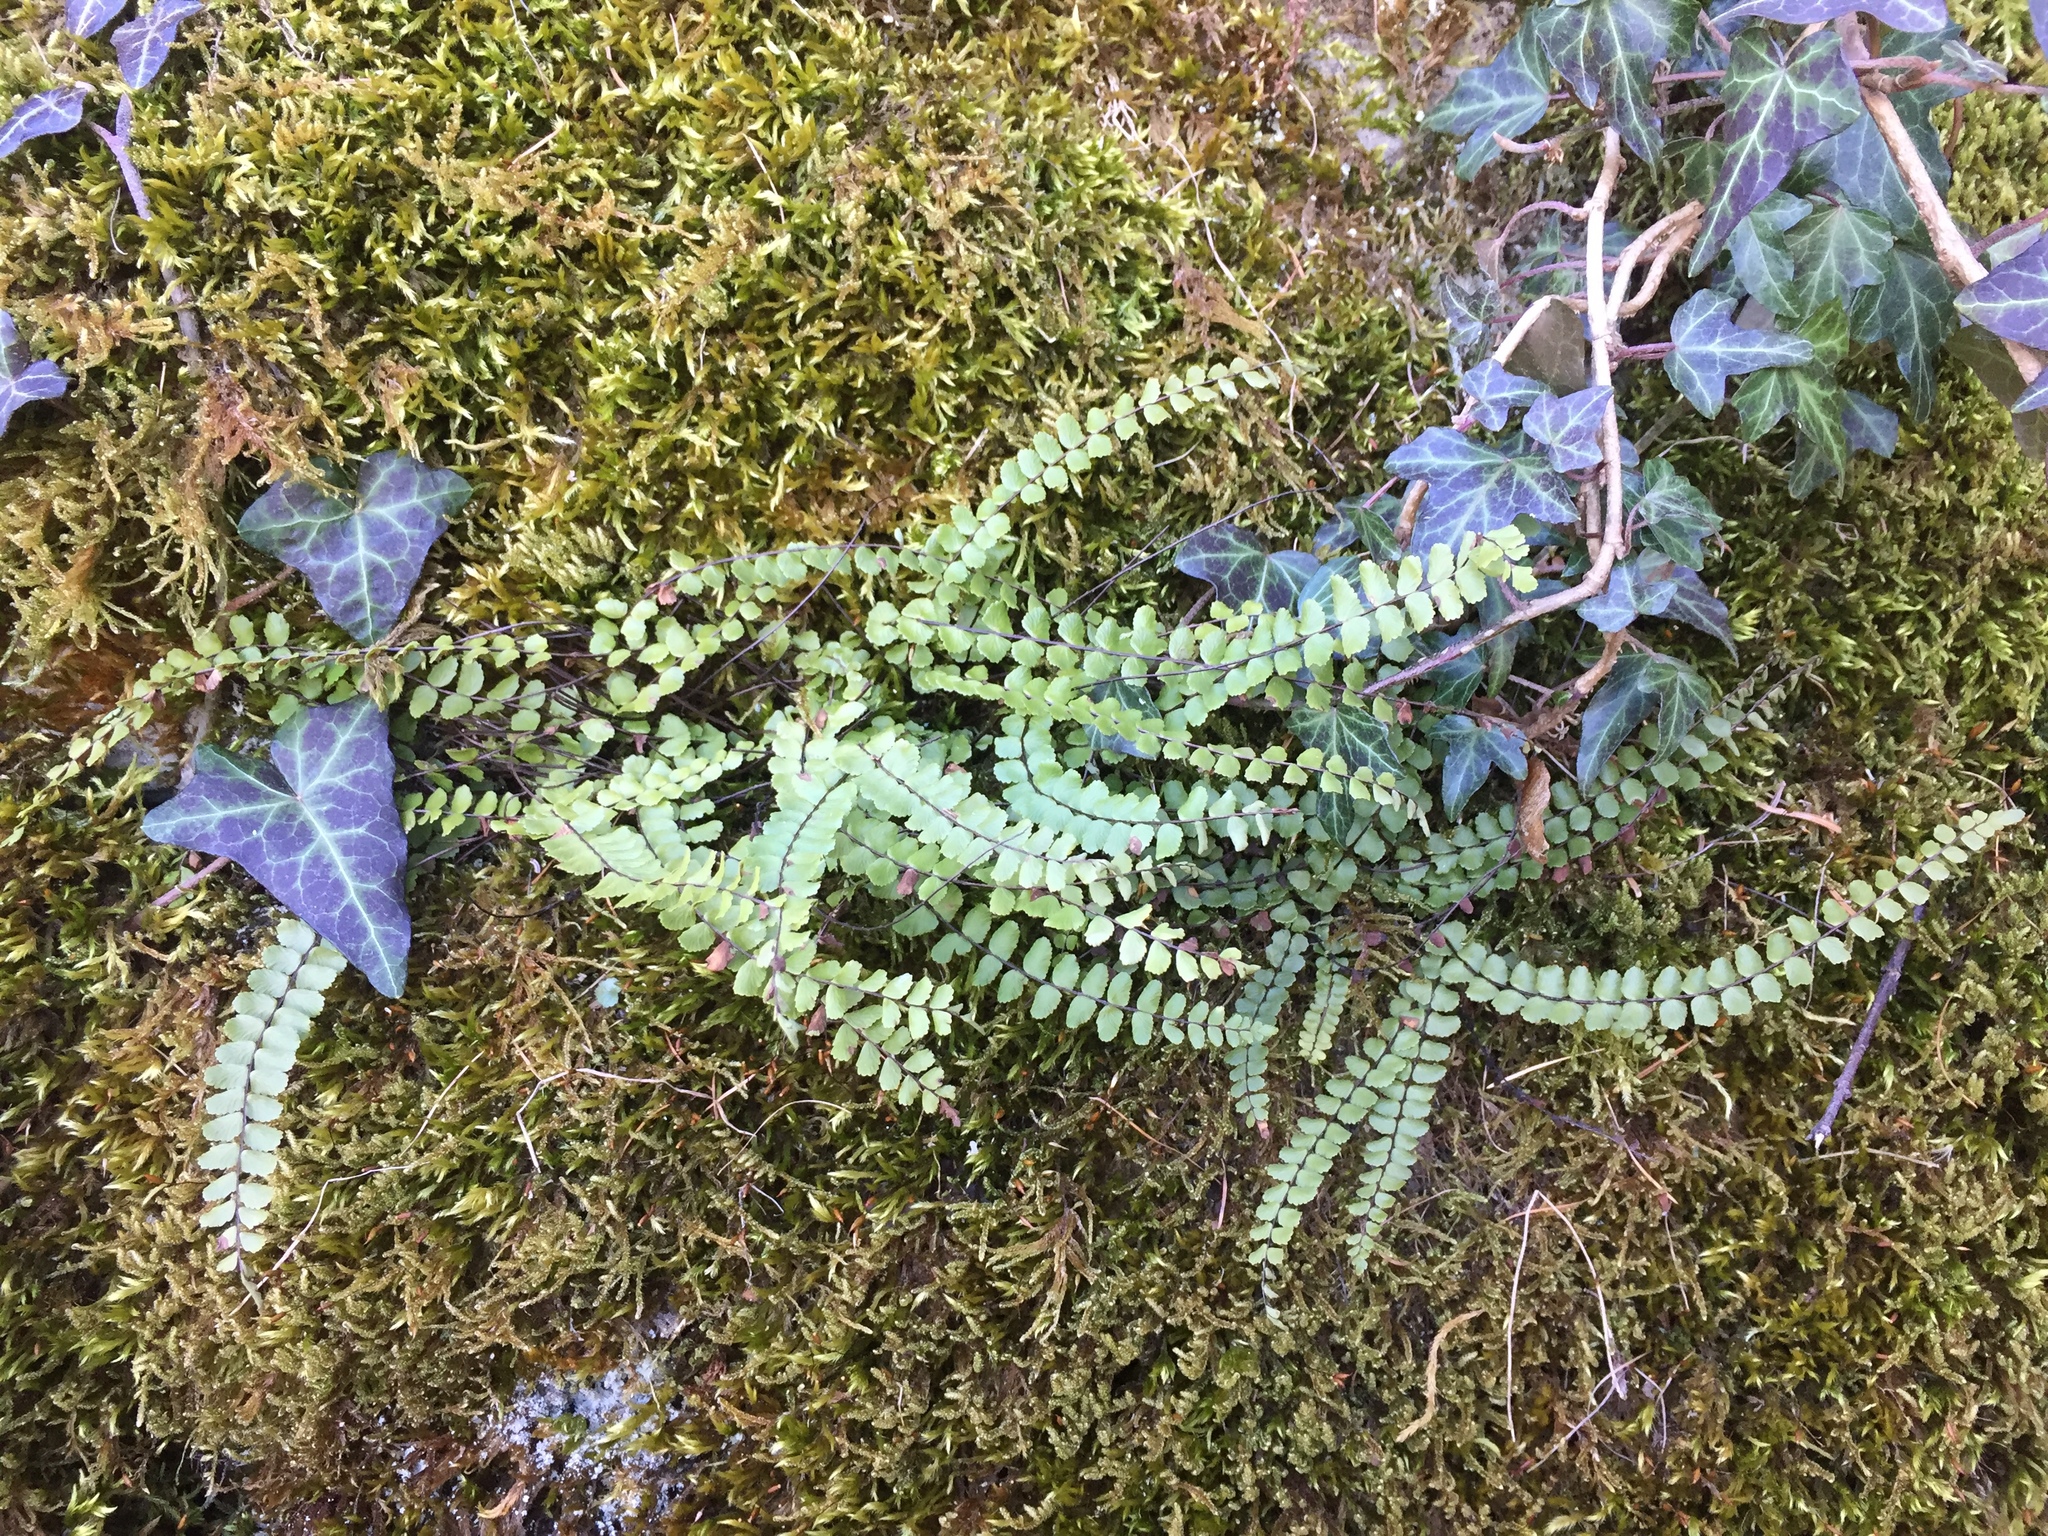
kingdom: Plantae
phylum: Tracheophyta
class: Polypodiopsida
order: Polypodiales
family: Aspleniaceae
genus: Asplenium
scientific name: Asplenium trichomanes
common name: Maidenhair spleenwort
